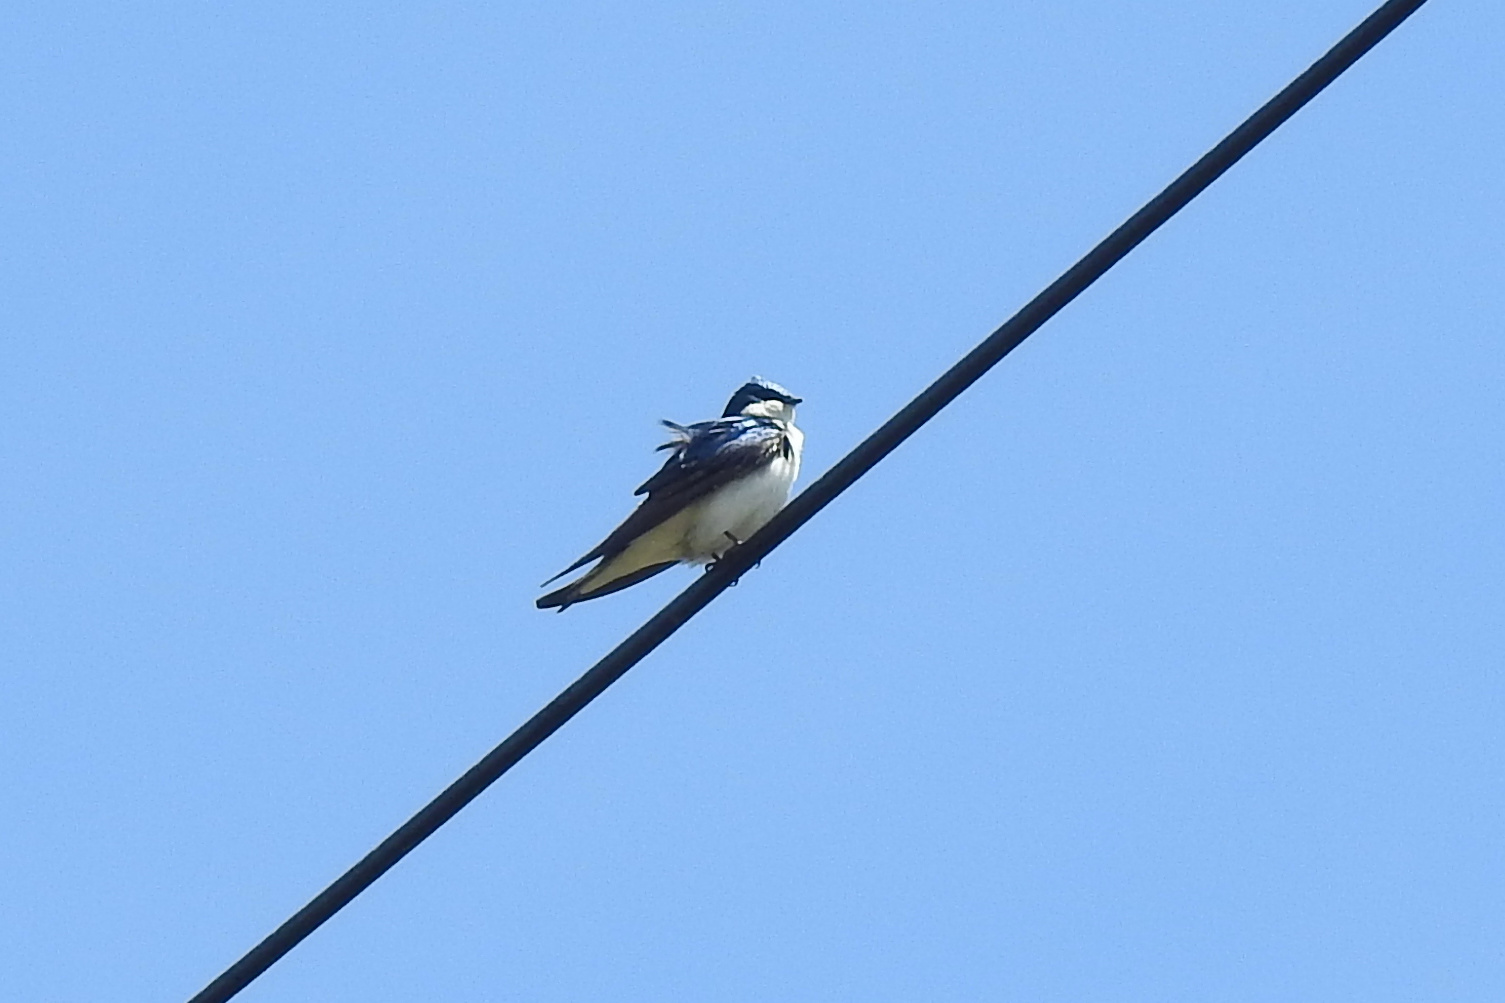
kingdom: Animalia
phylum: Chordata
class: Aves
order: Passeriformes
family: Hirundinidae
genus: Tachycineta
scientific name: Tachycineta bicolor
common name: Tree swallow
